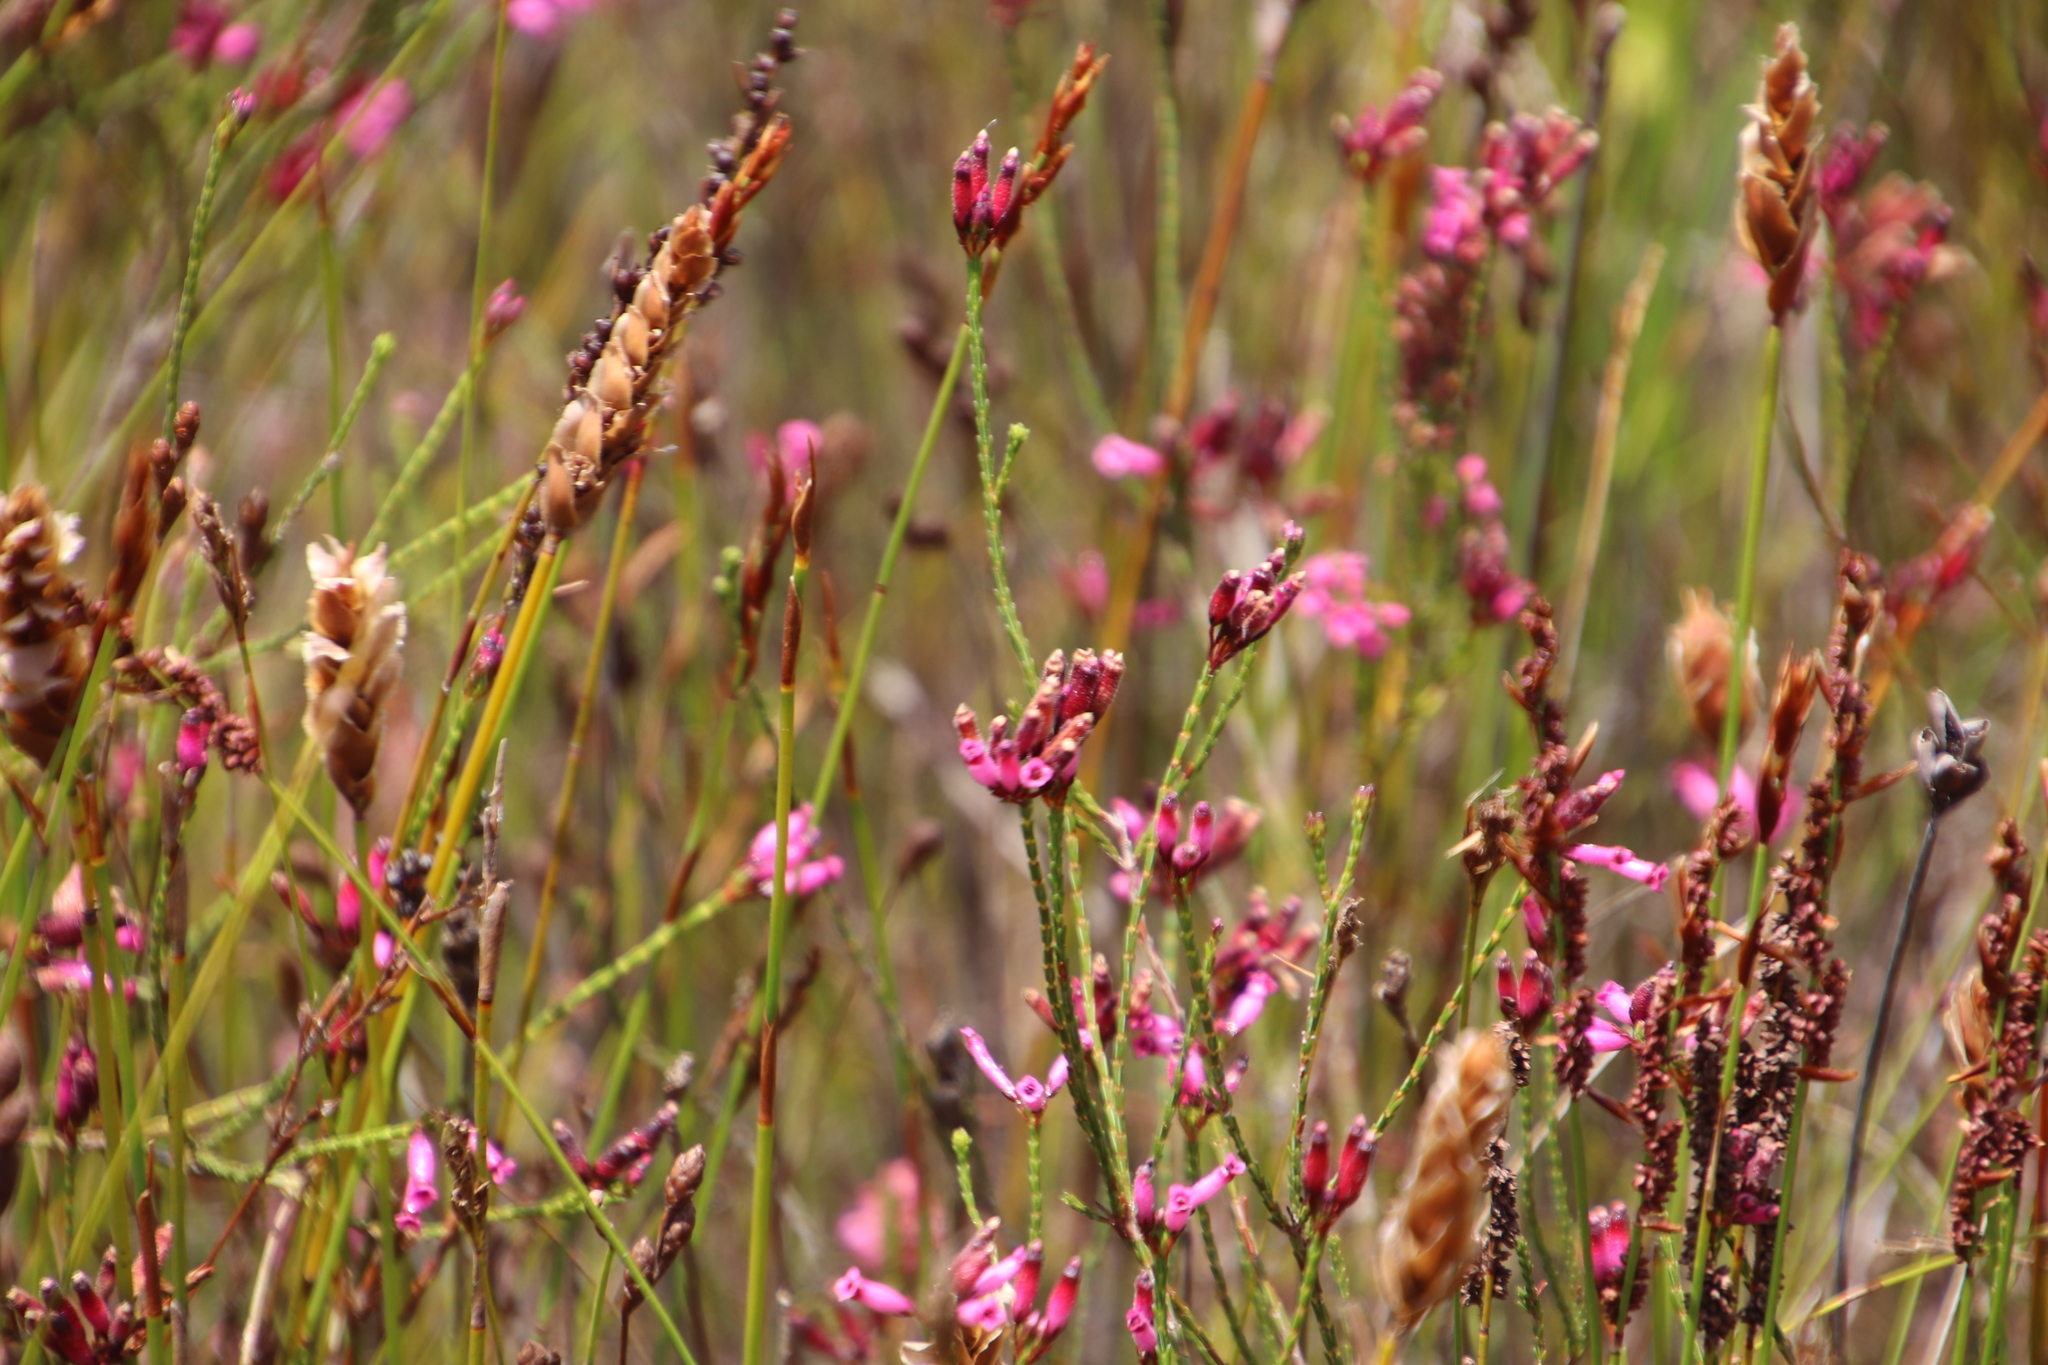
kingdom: Plantae
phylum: Tracheophyta
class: Magnoliopsida
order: Ericales
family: Ericaceae
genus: Erica
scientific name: Erica cristata
